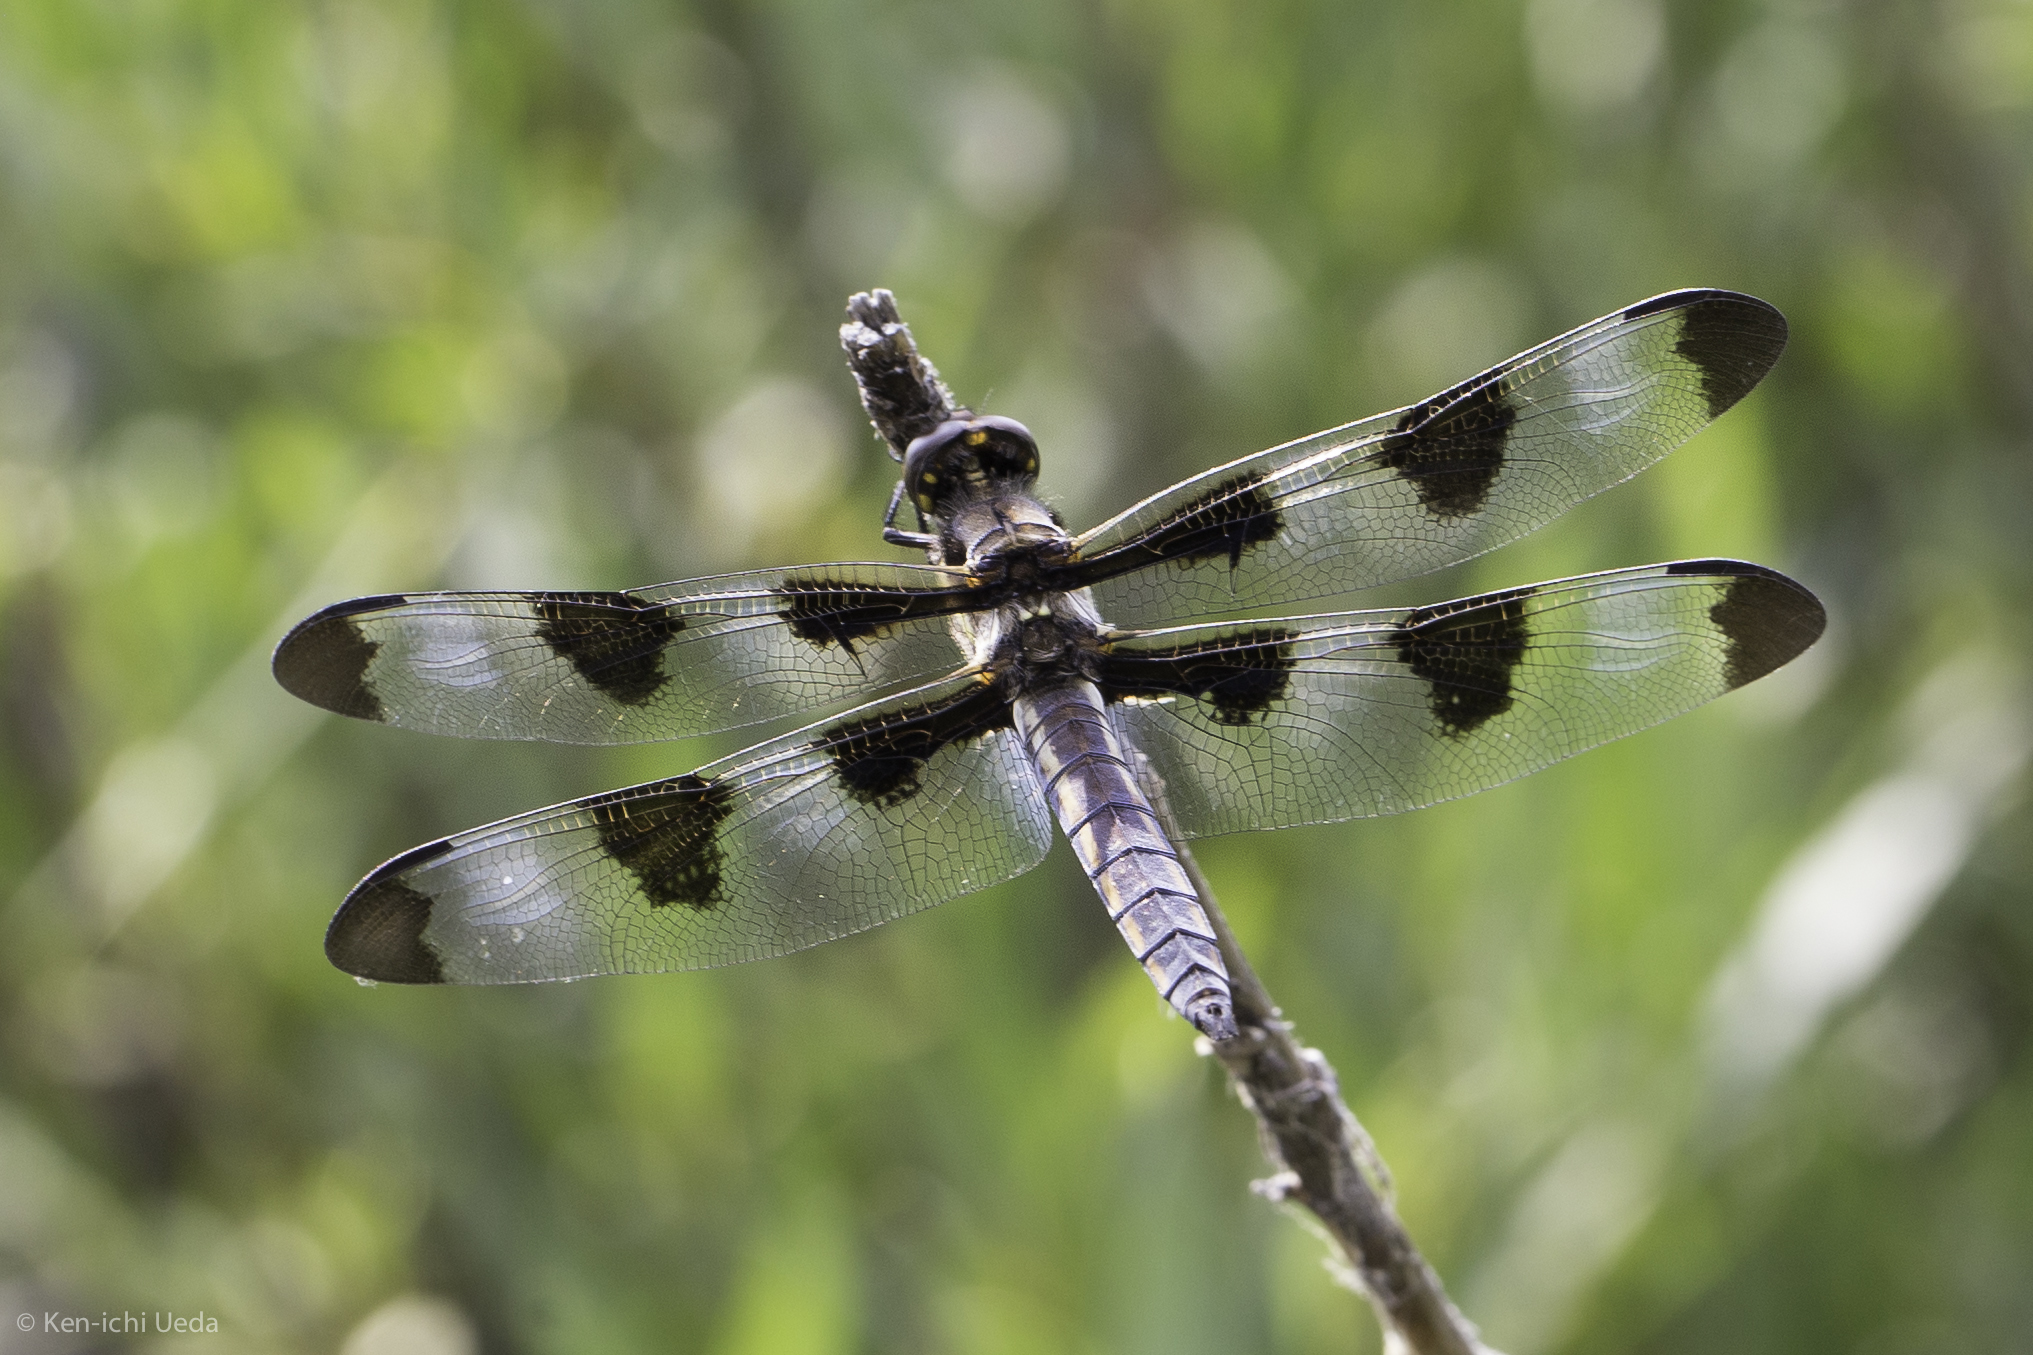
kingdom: Animalia
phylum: Arthropoda
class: Insecta
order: Odonata
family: Libellulidae
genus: Libellula
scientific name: Libellula pulchella
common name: Twelve-spotted skimmer
